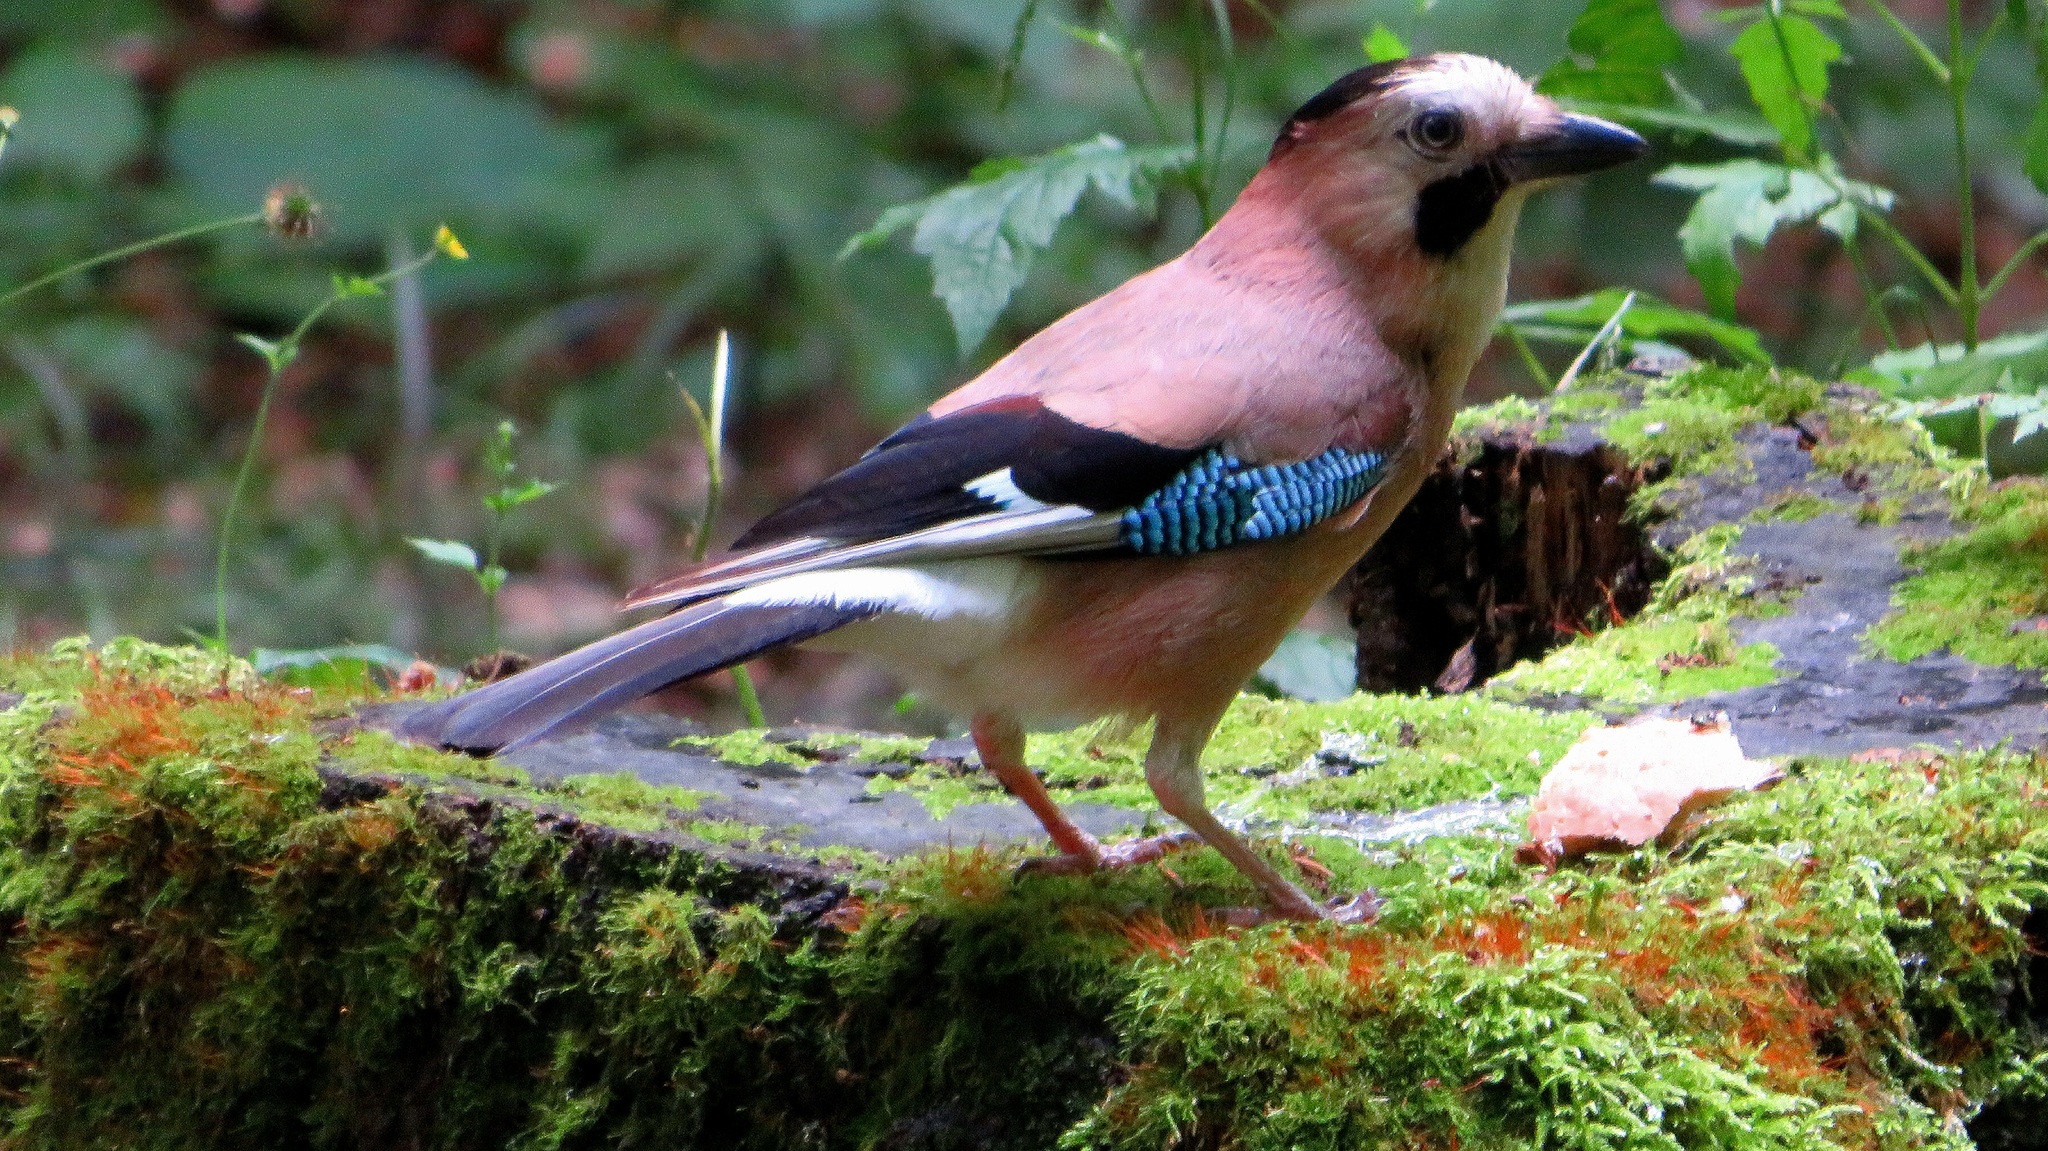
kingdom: Animalia
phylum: Chordata
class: Aves
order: Passeriformes
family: Corvidae
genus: Garrulus
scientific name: Garrulus glandarius
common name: Eurasian jay
